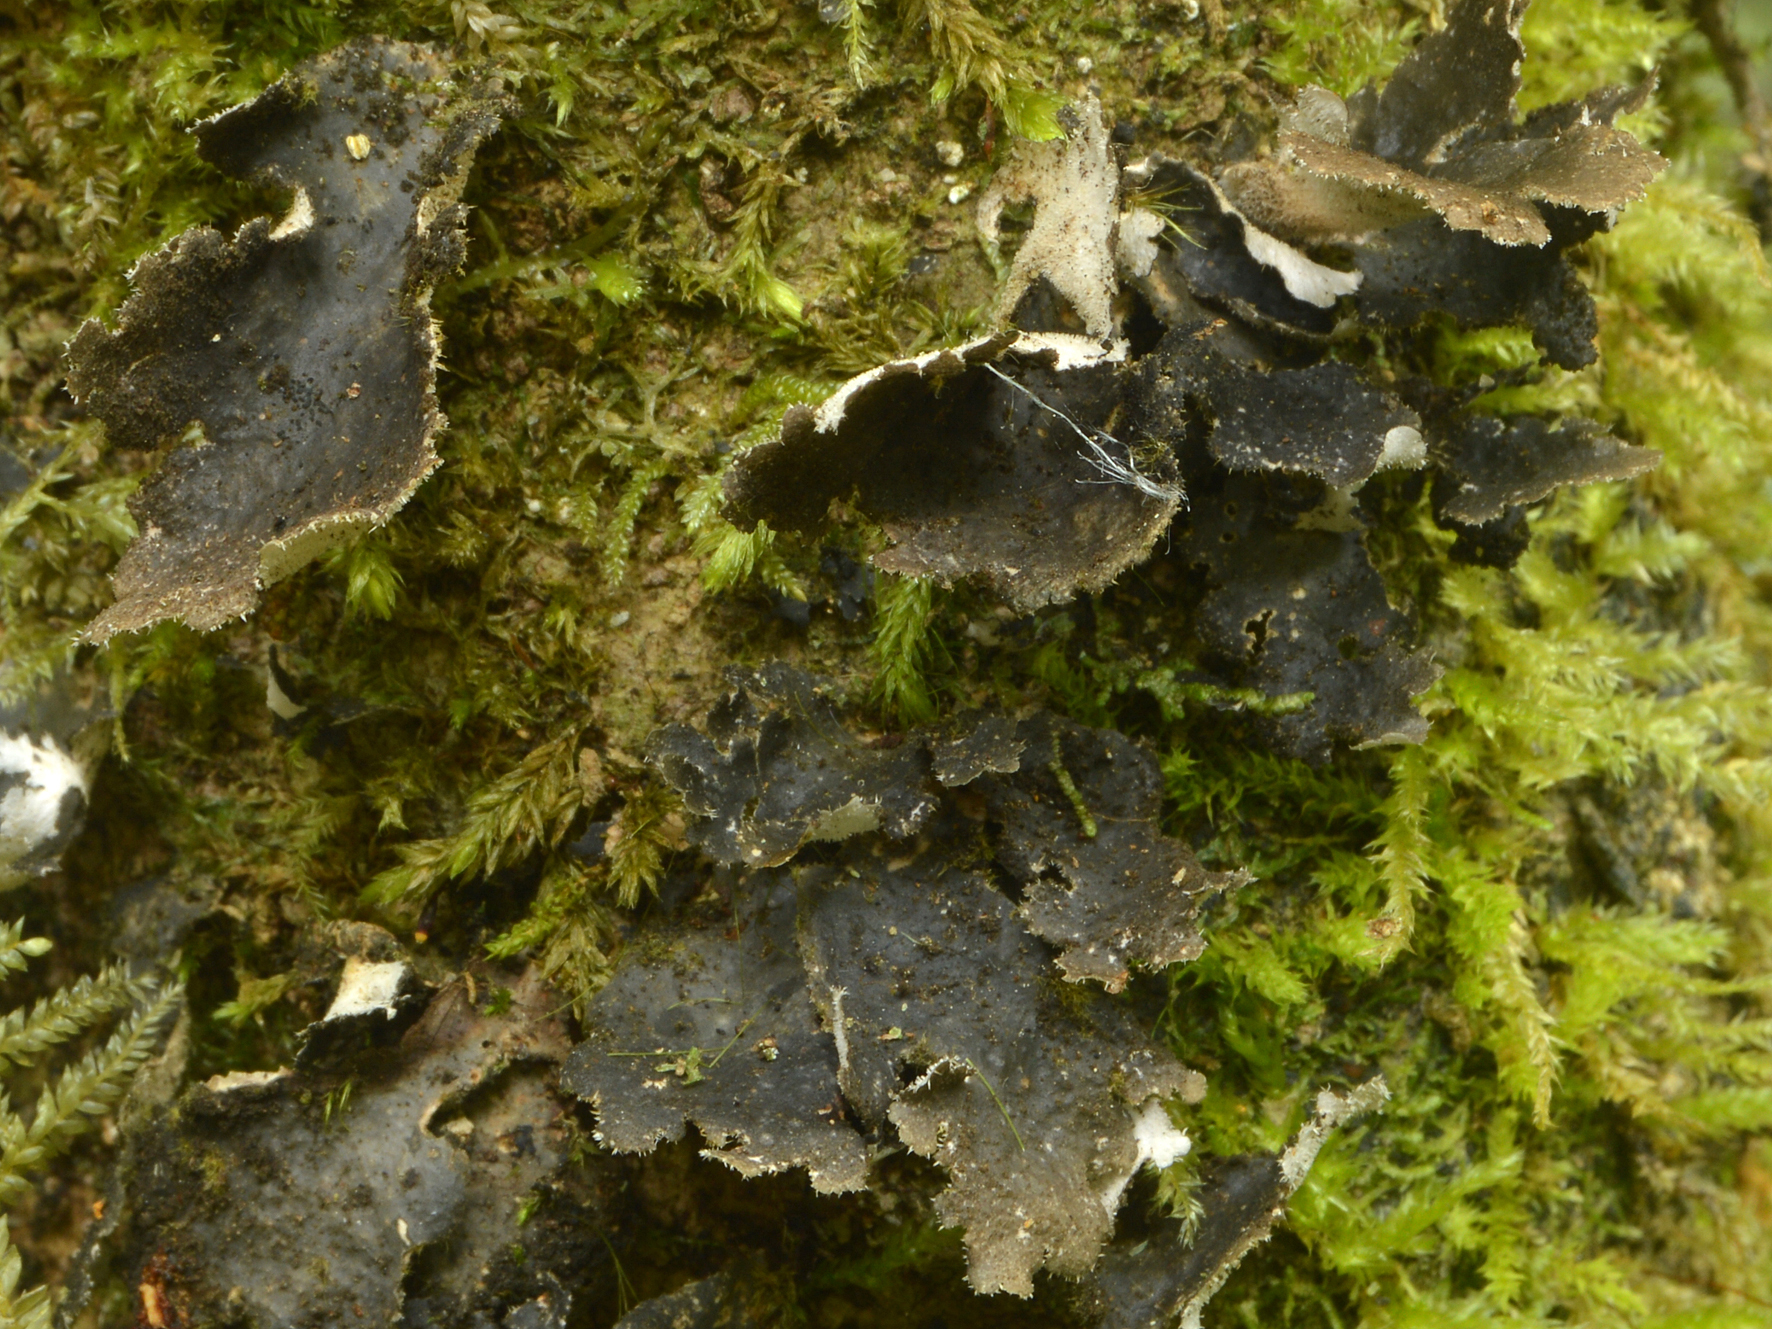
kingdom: Fungi
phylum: Ascomycota
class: Lecanoromycetes
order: Peltigerales
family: Lobariaceae
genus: Sticta
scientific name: Sticta fuliginosa
